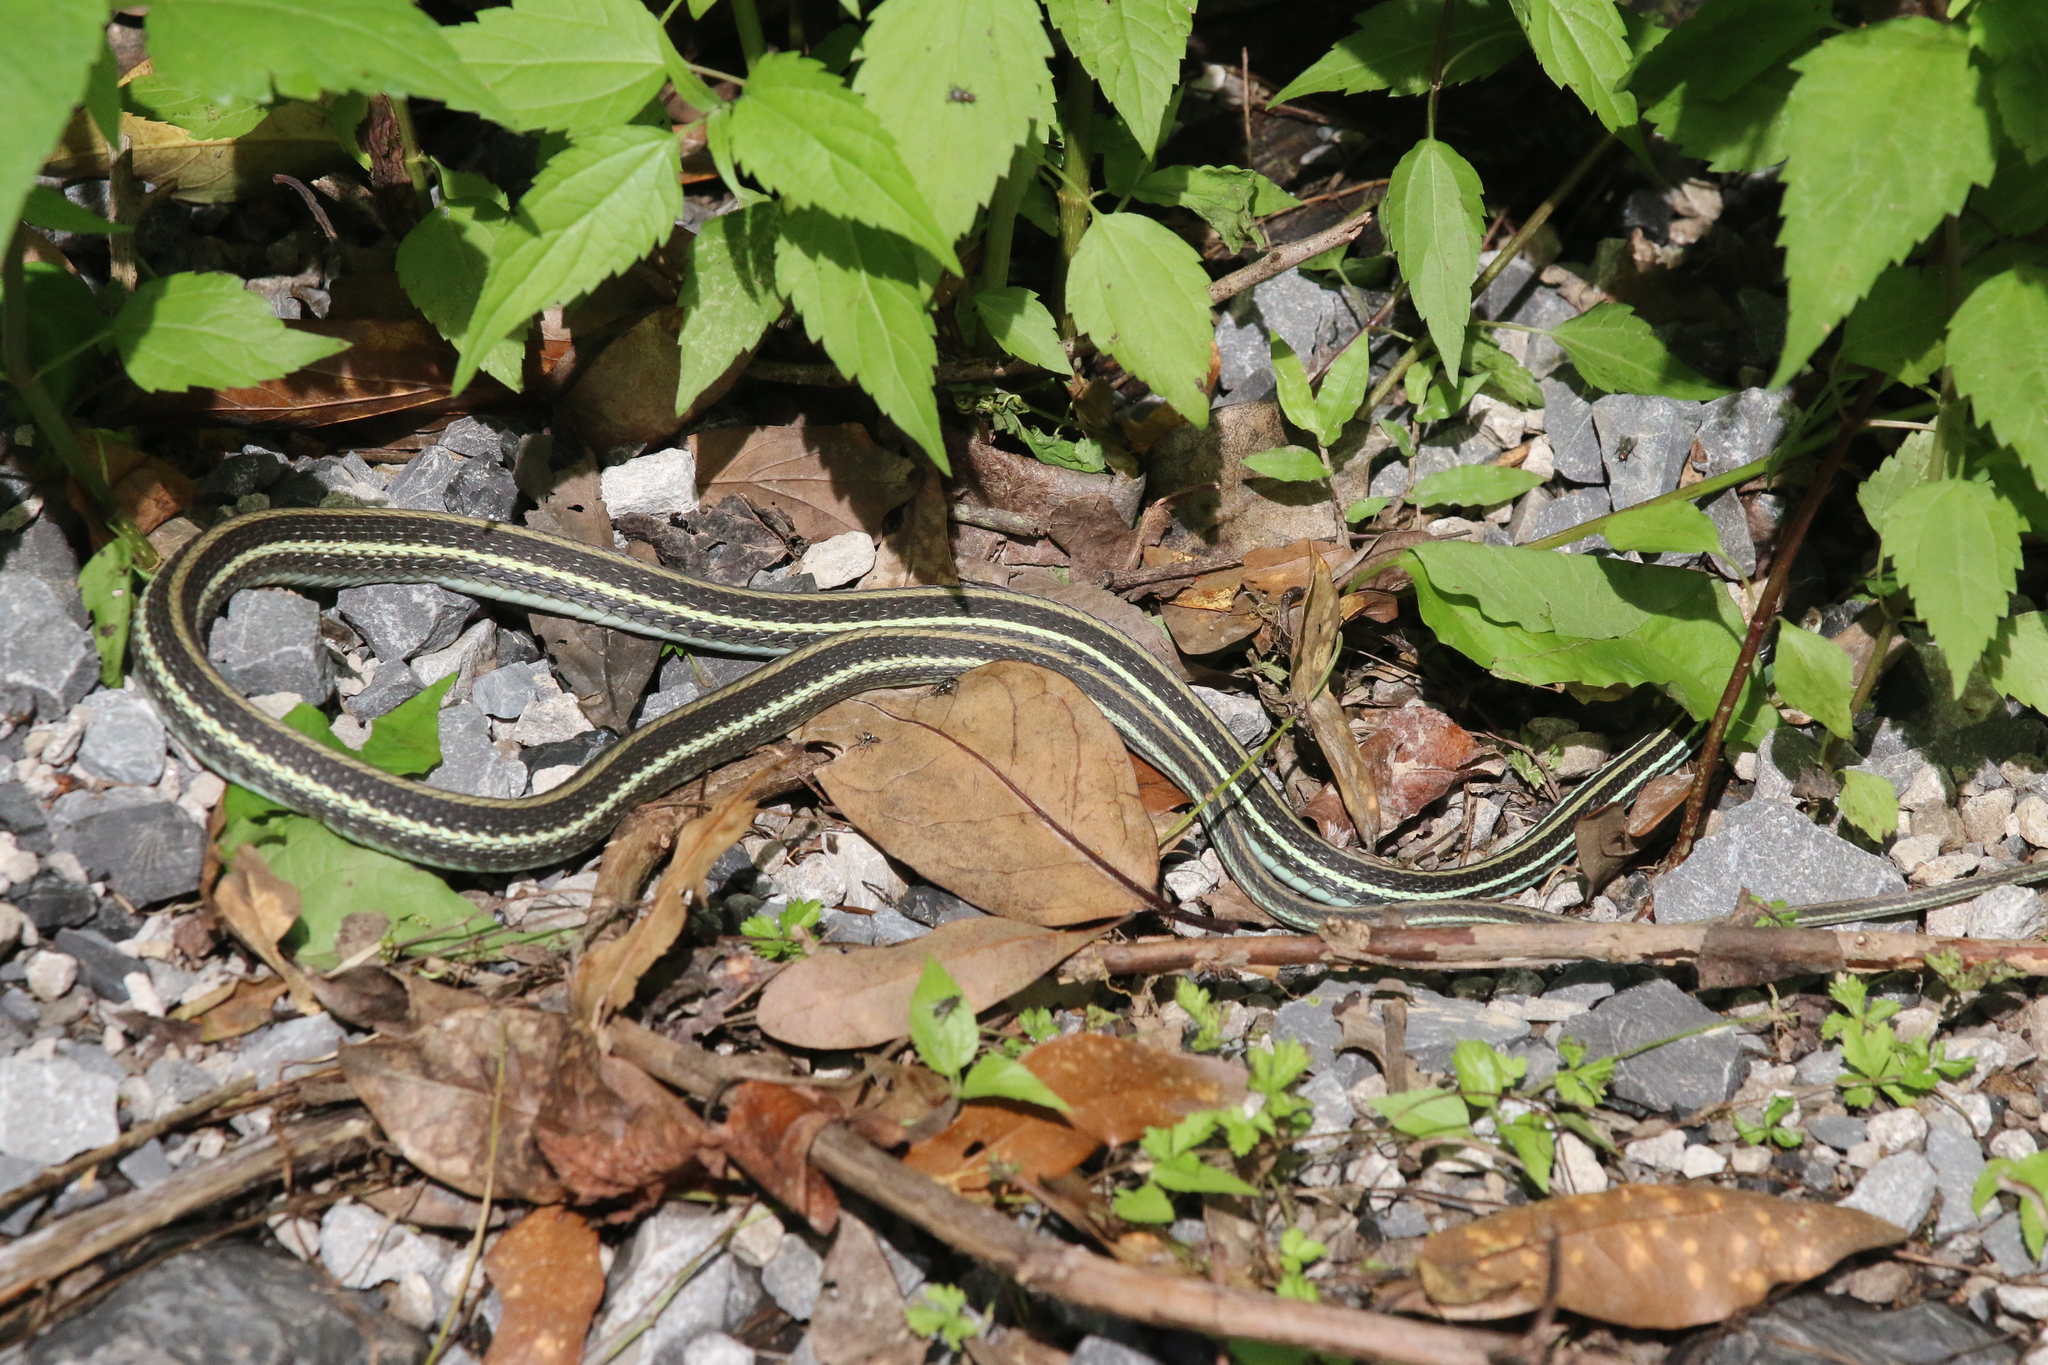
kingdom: Animalia
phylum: Chordata
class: Squamata
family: Colubridae
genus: Thamnophis
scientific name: Thamnophis proximus
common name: Western ribbon snake
